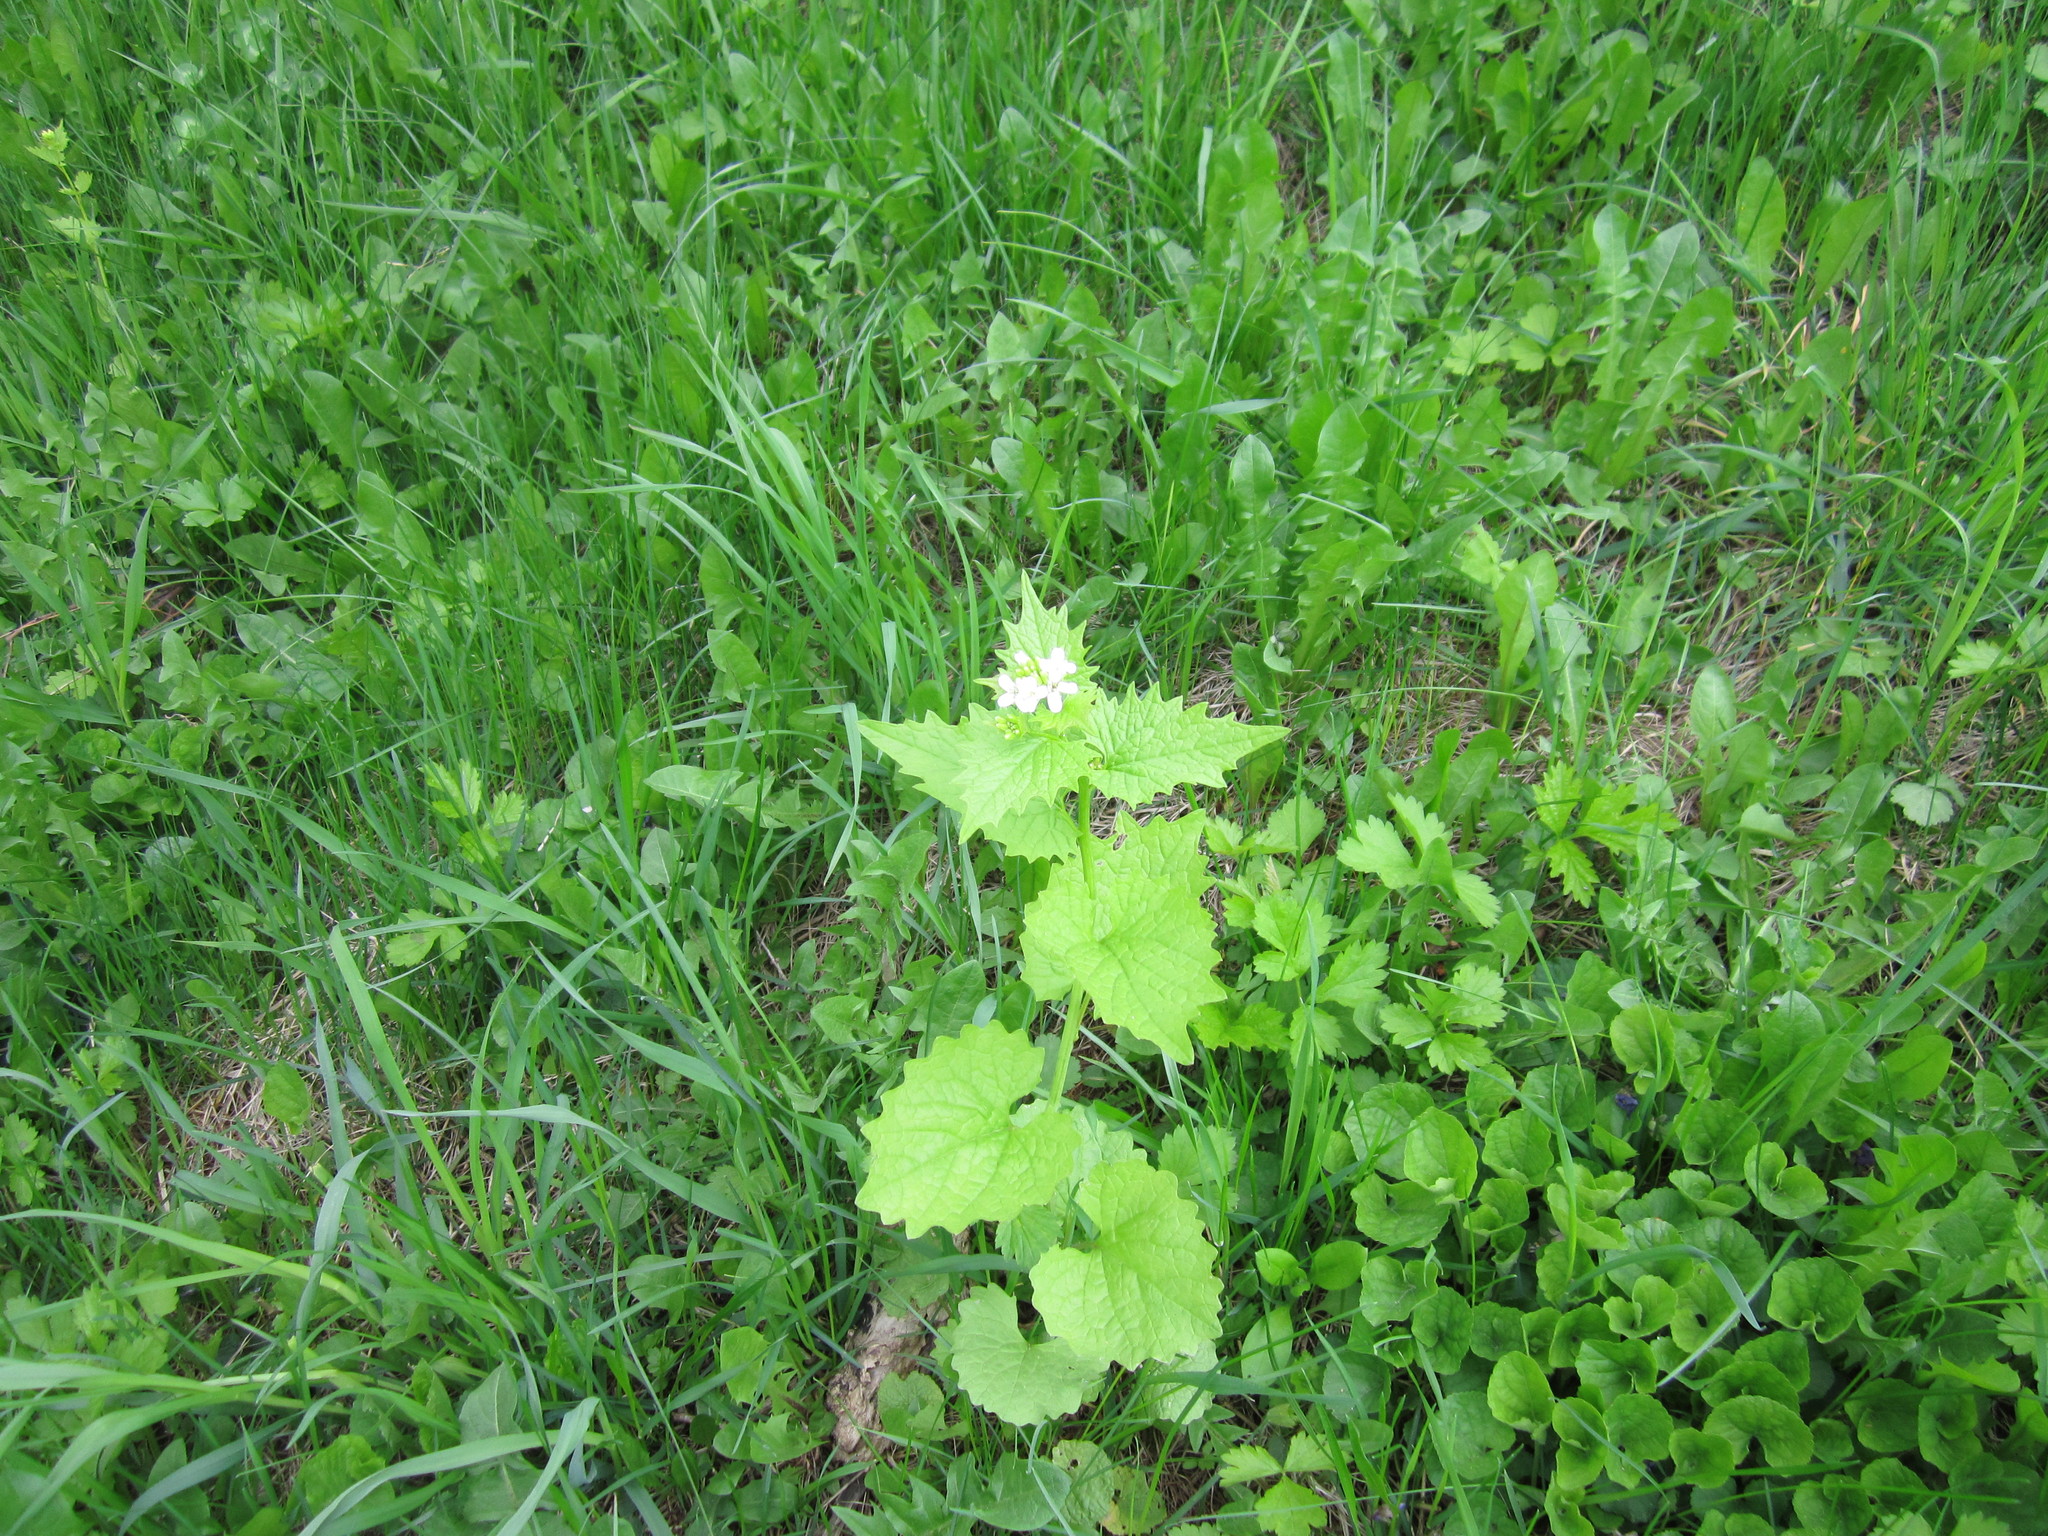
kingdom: Plantae
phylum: Tracheophyta
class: Magnoliopsida
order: Brassicales
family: Brassicaceae
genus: Alliaria
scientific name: Alliaria petiolata
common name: Garlic mustard
